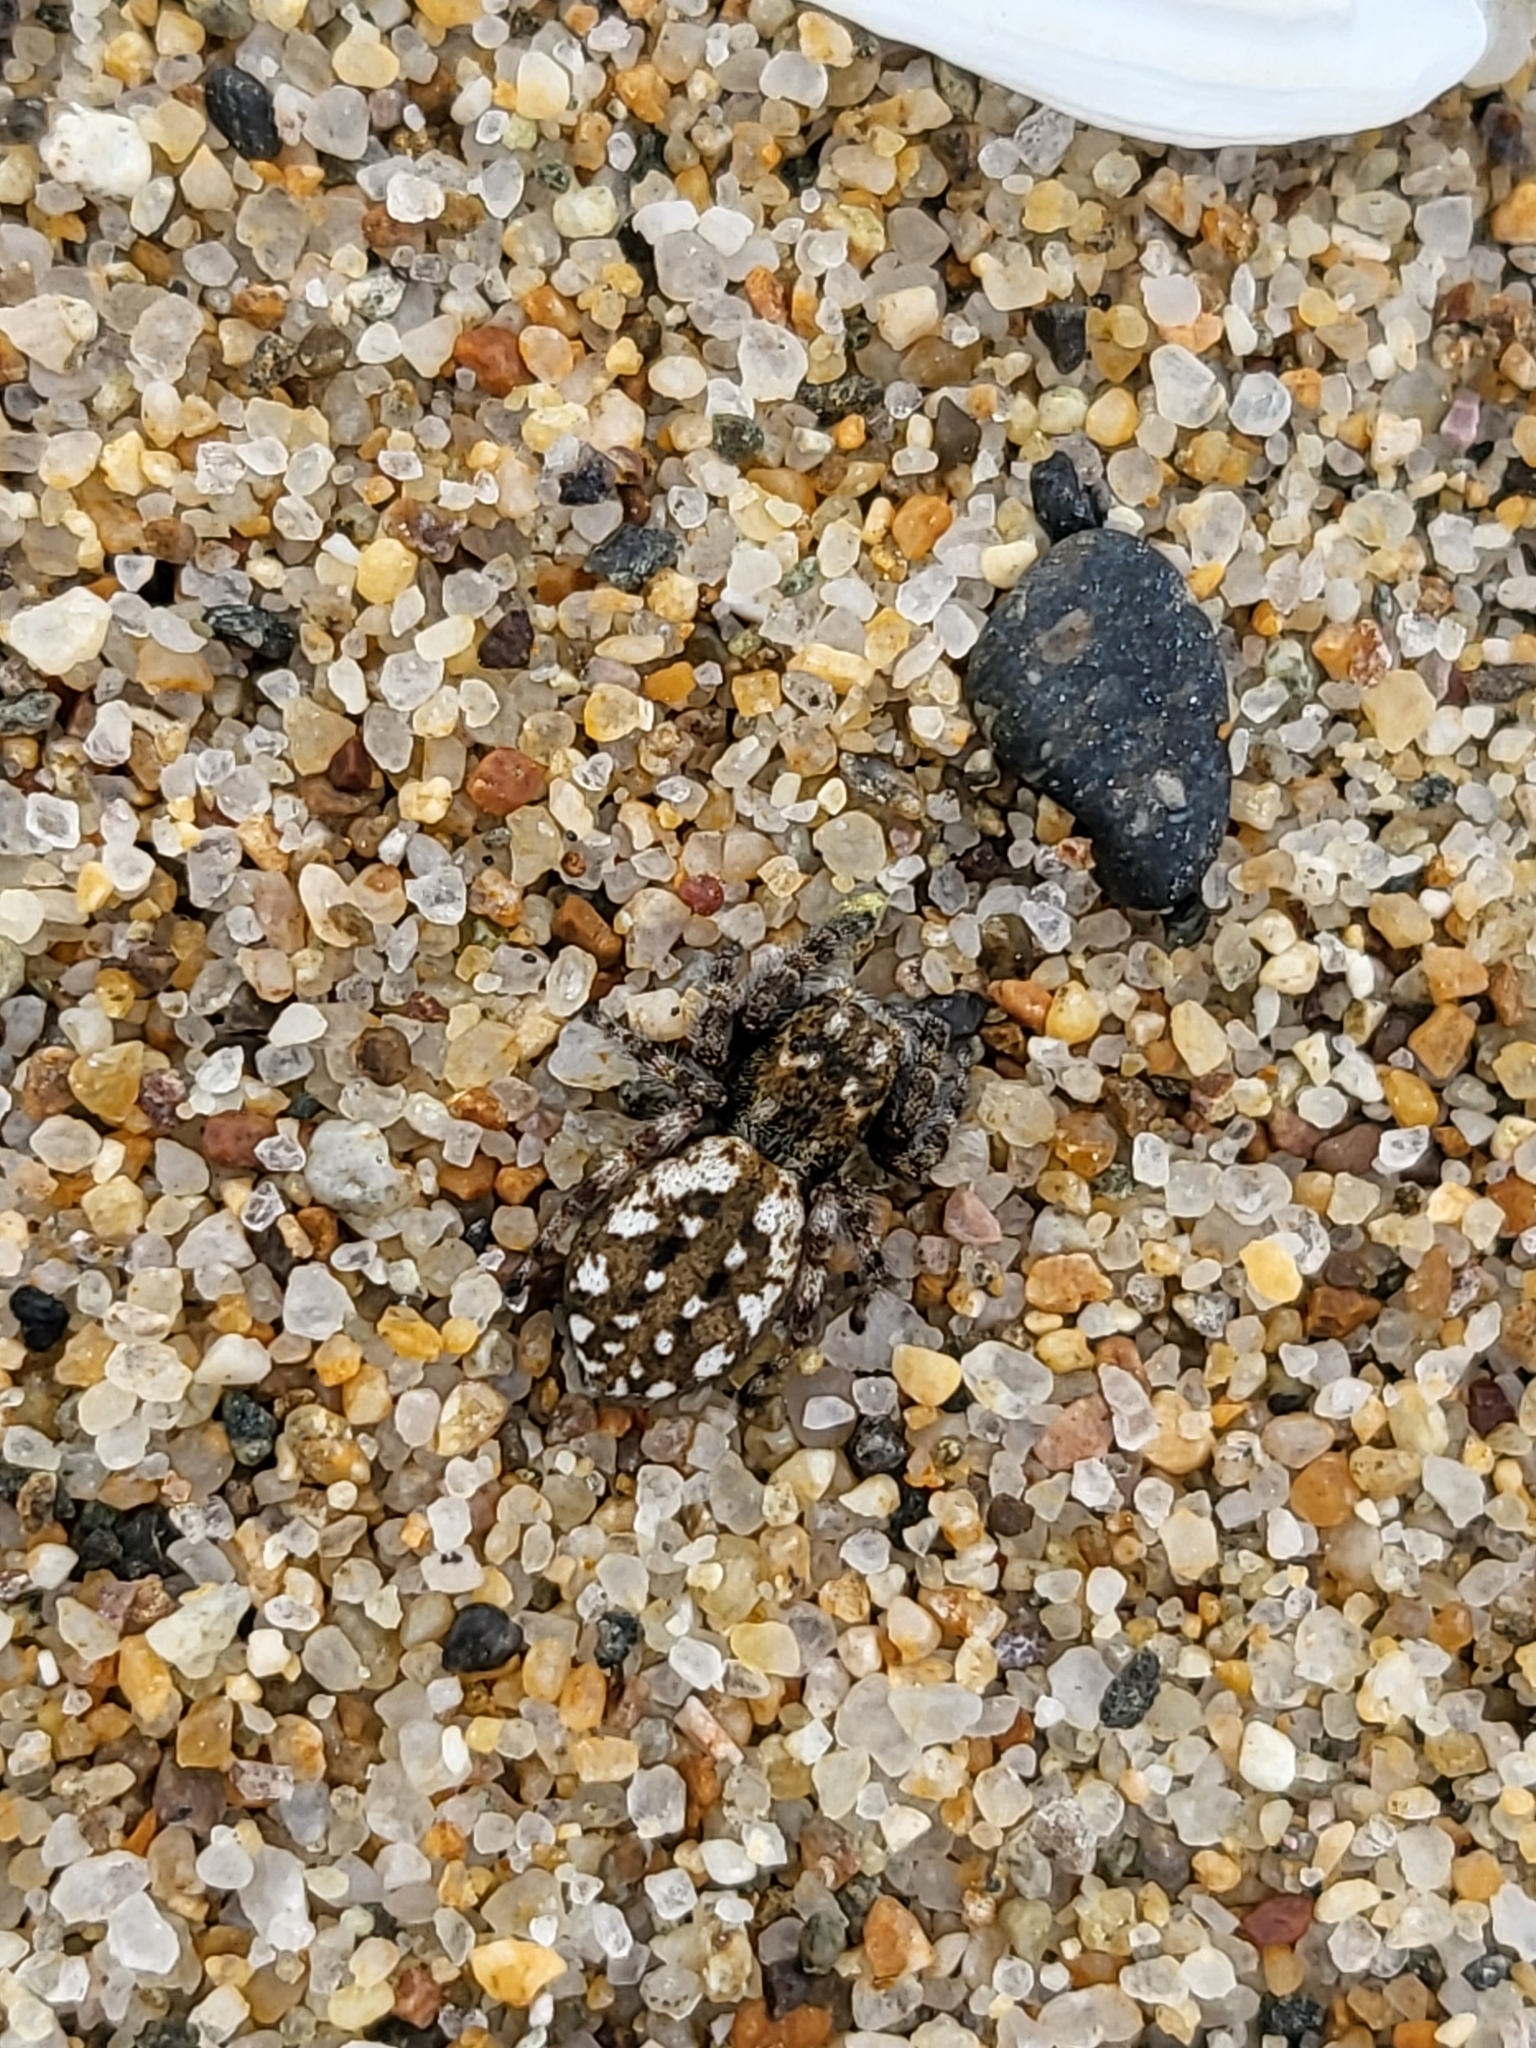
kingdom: Animalia
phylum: Arthropoda
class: Arachnida
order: Araneae
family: Salticidae
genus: Terralonus
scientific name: Terralonus californicus
